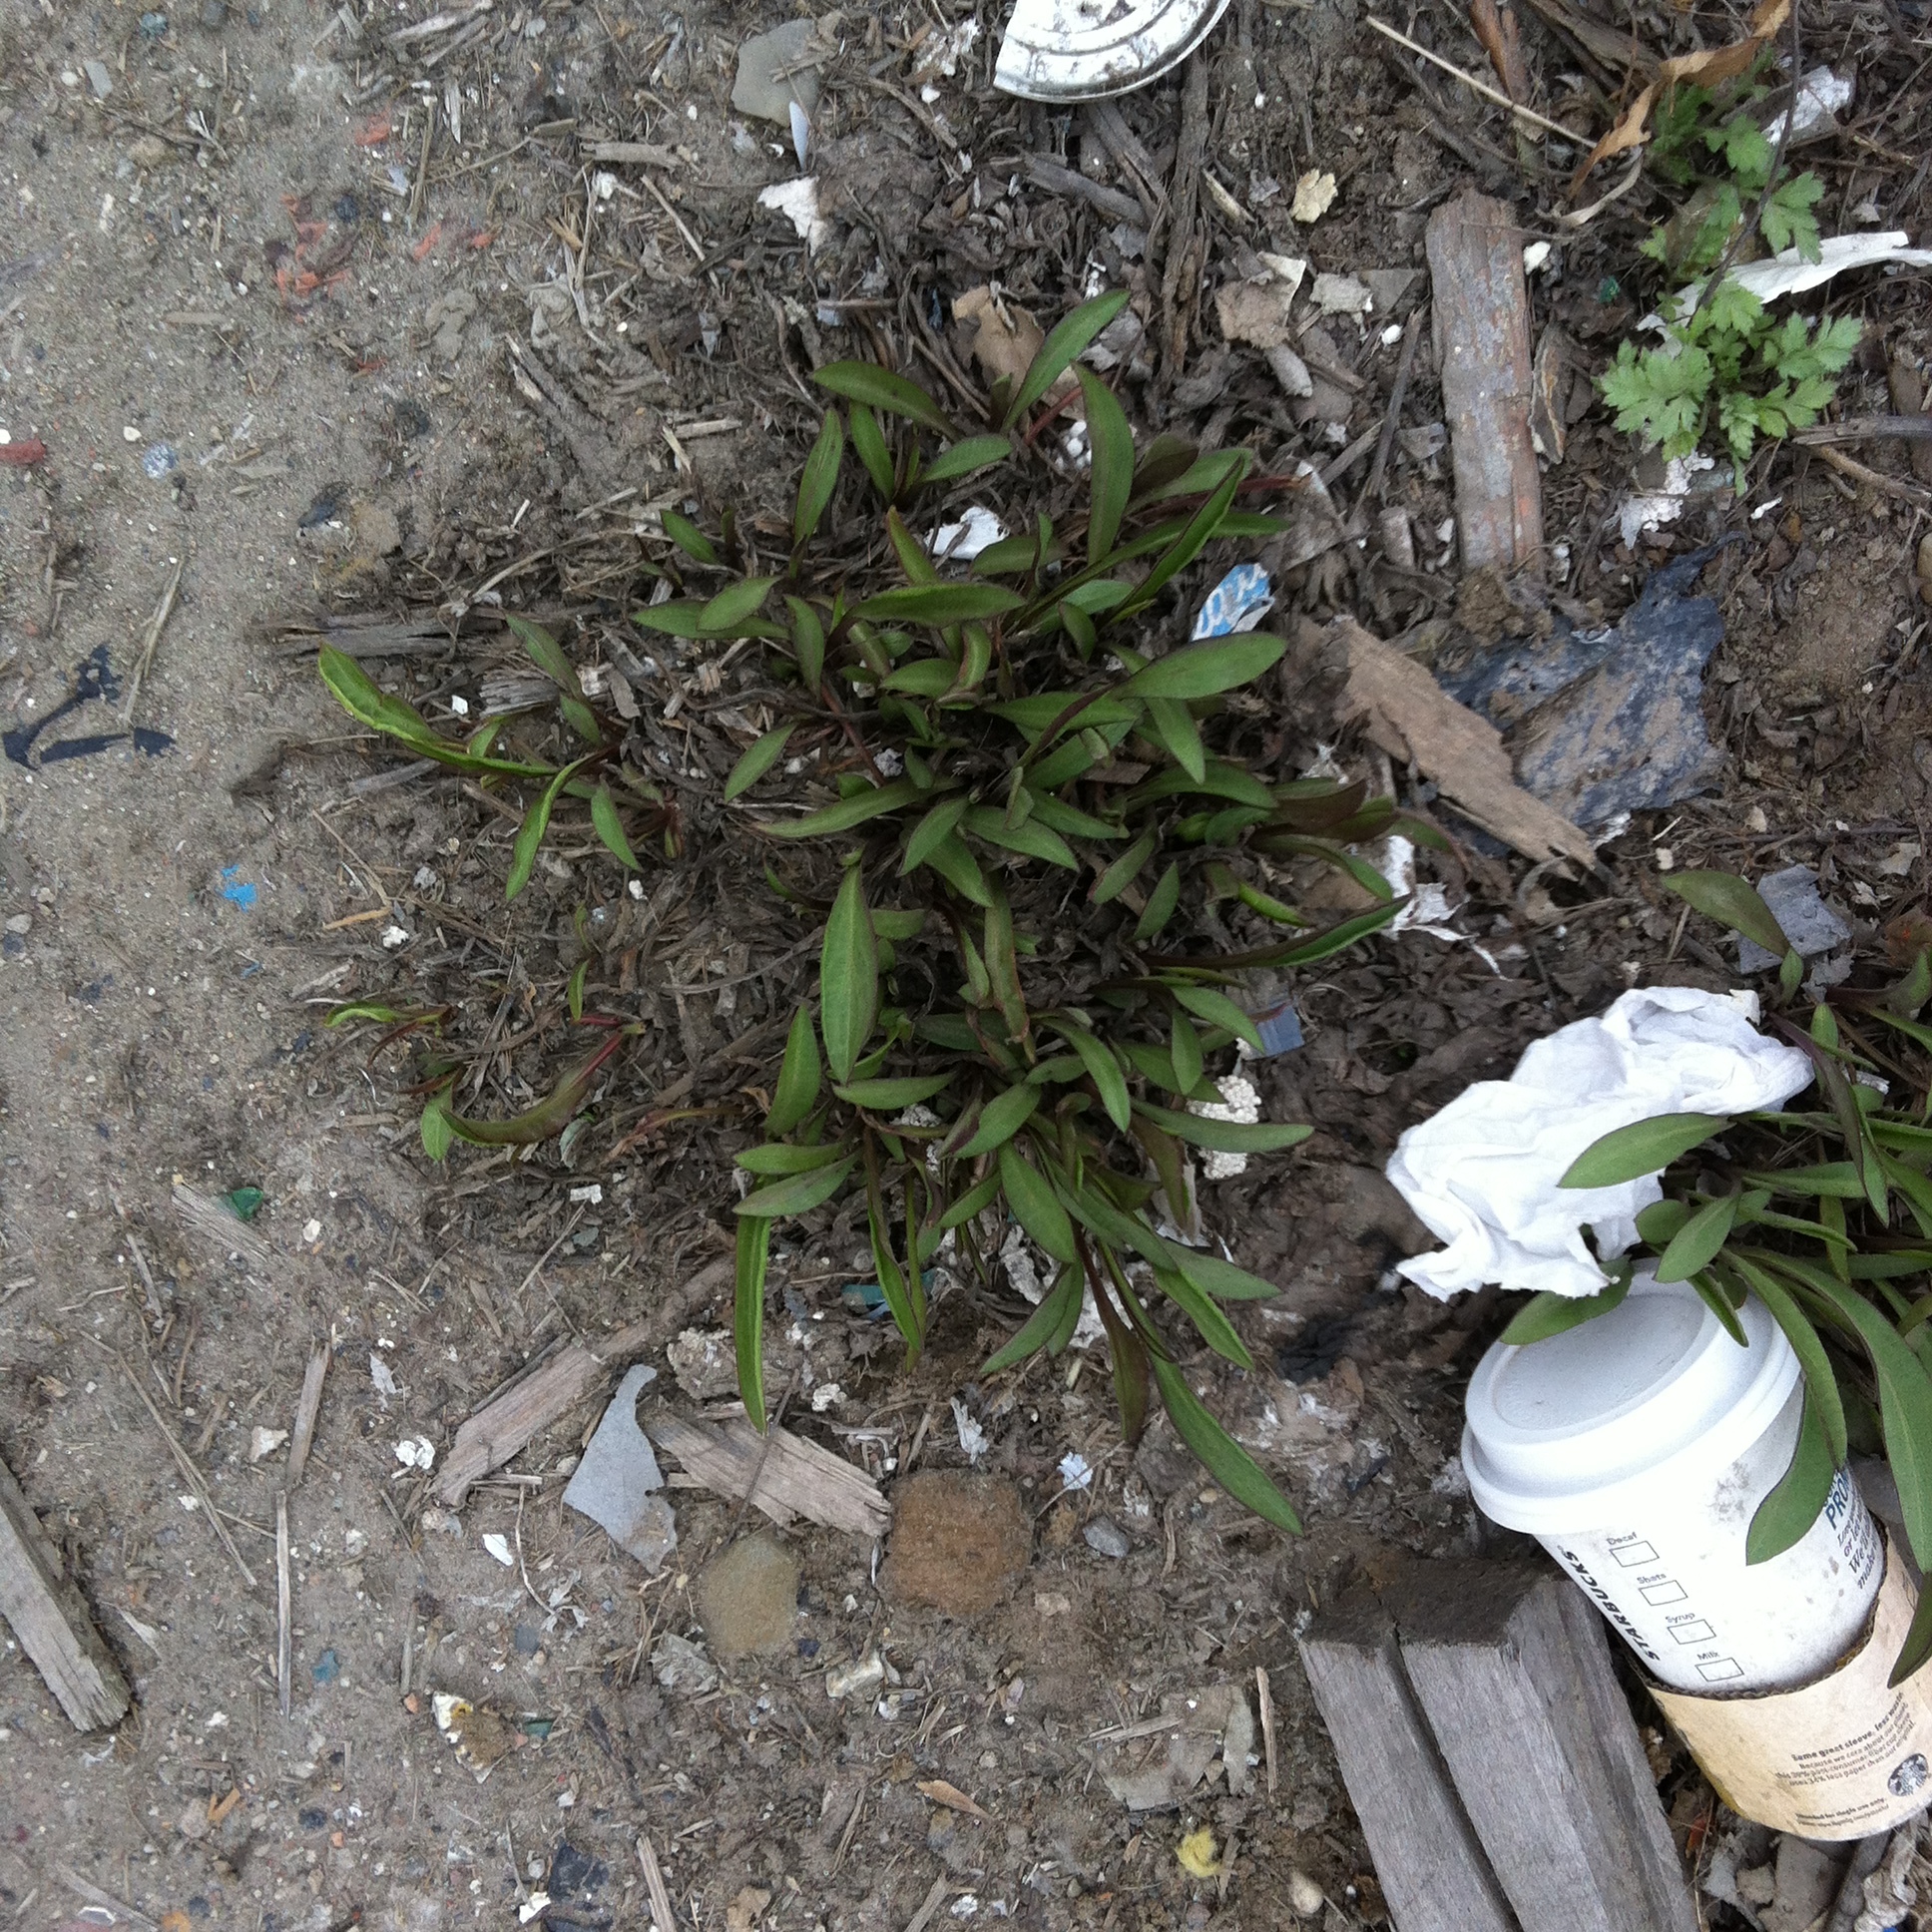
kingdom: Plantae
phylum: Tracheophyta
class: Magnoliopsida
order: Asterales
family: Asteraceae
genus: Solidago
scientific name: Solidago sempervirens
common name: Salt-marsh goldenrod
